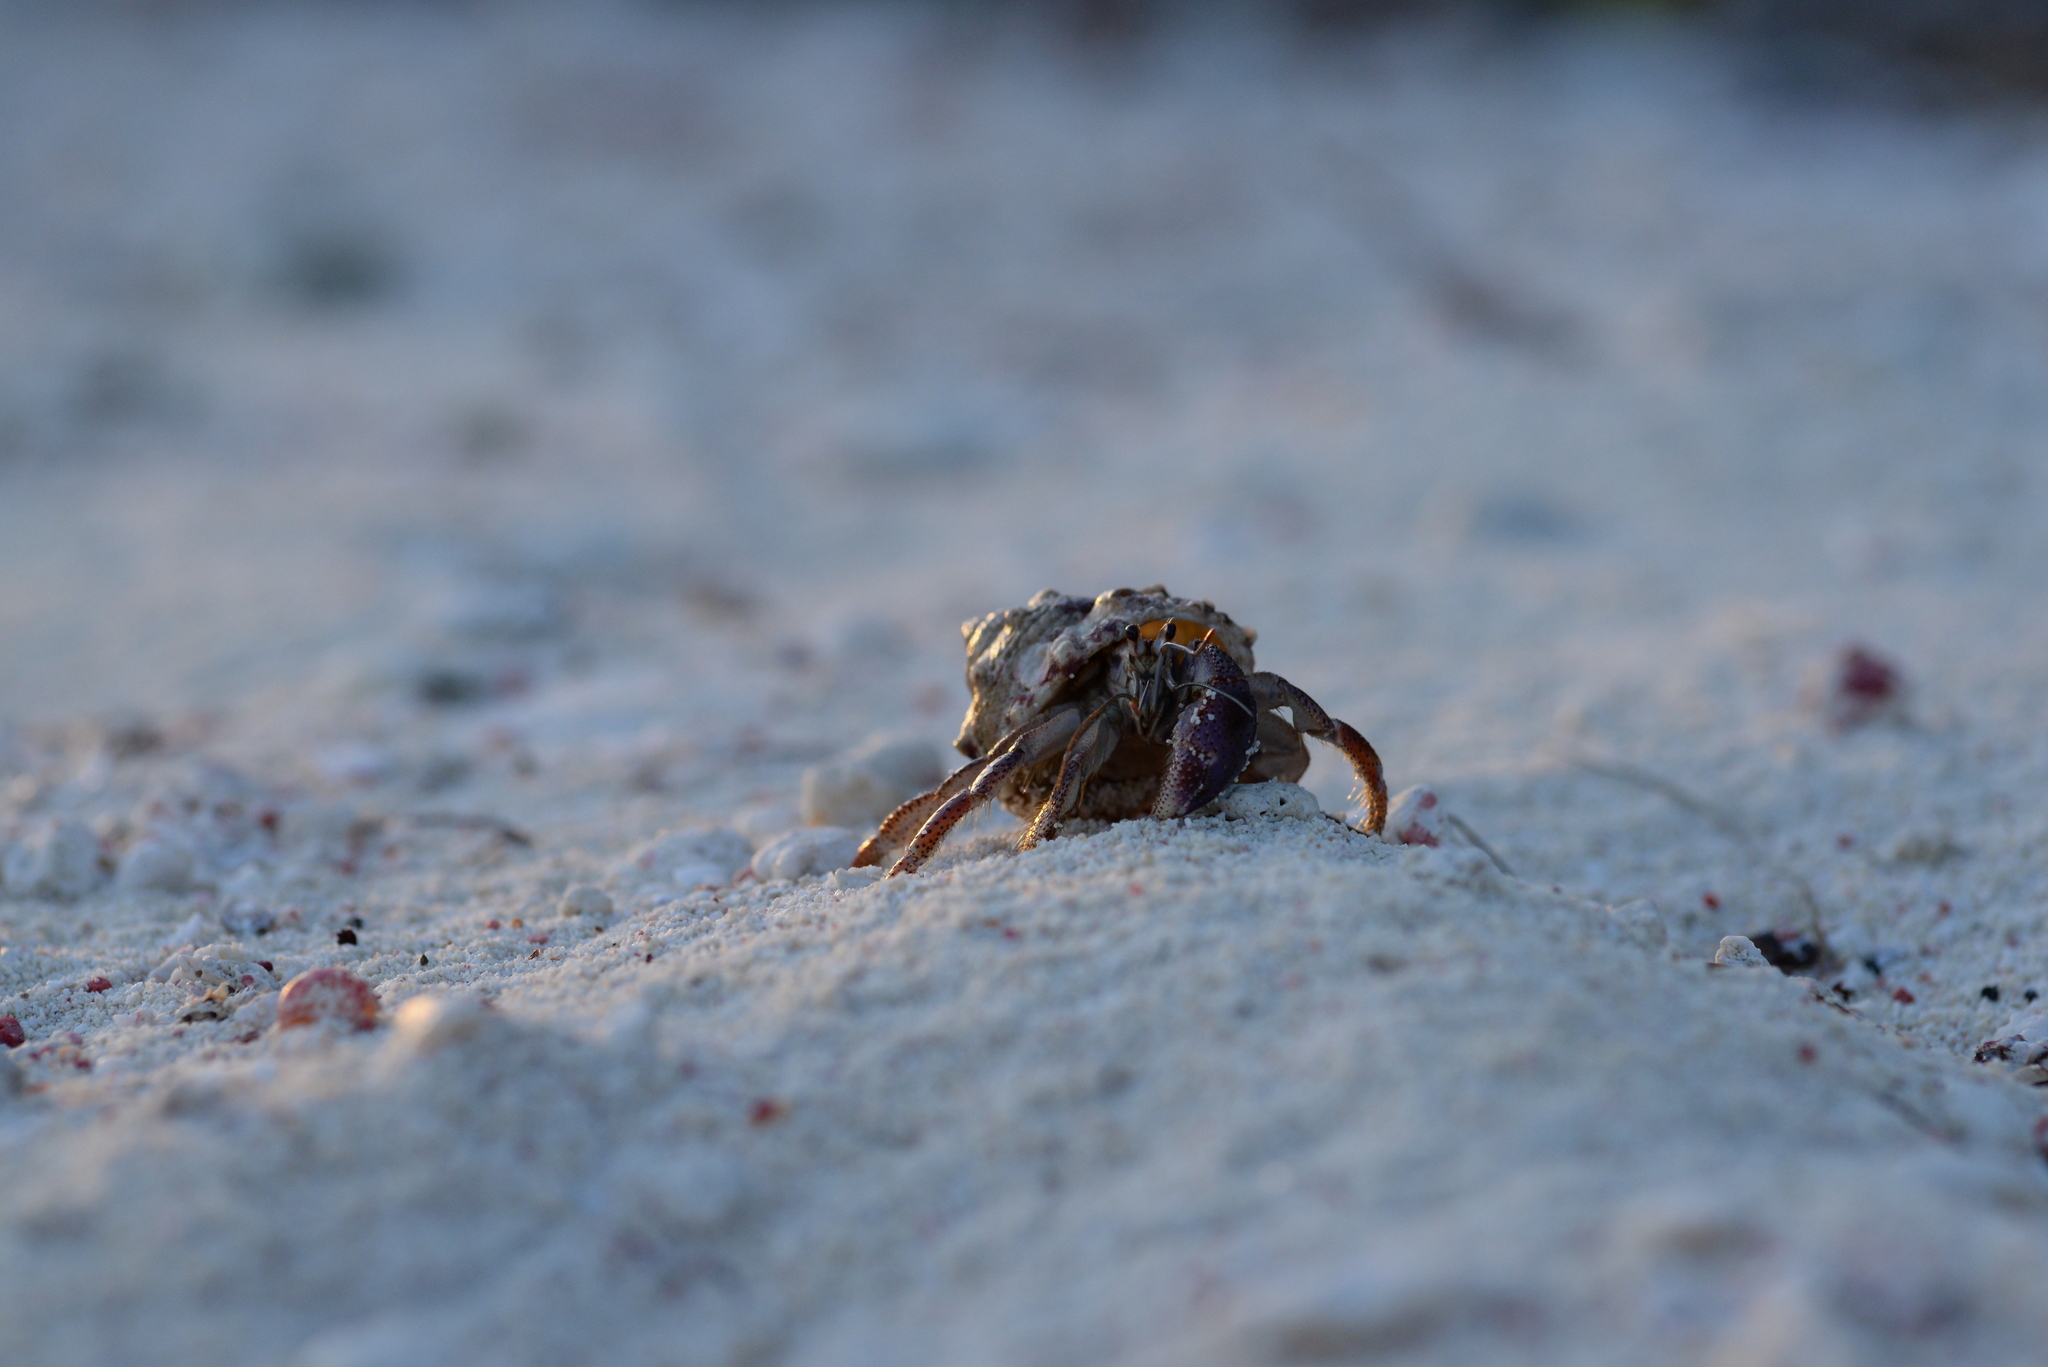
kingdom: Animalia
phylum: Arthropoda
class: Malacostraca
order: Decapoda
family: Coenobitidae
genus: Coenobita
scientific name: Coenobita clypeatus
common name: Caribbean hermit crab
